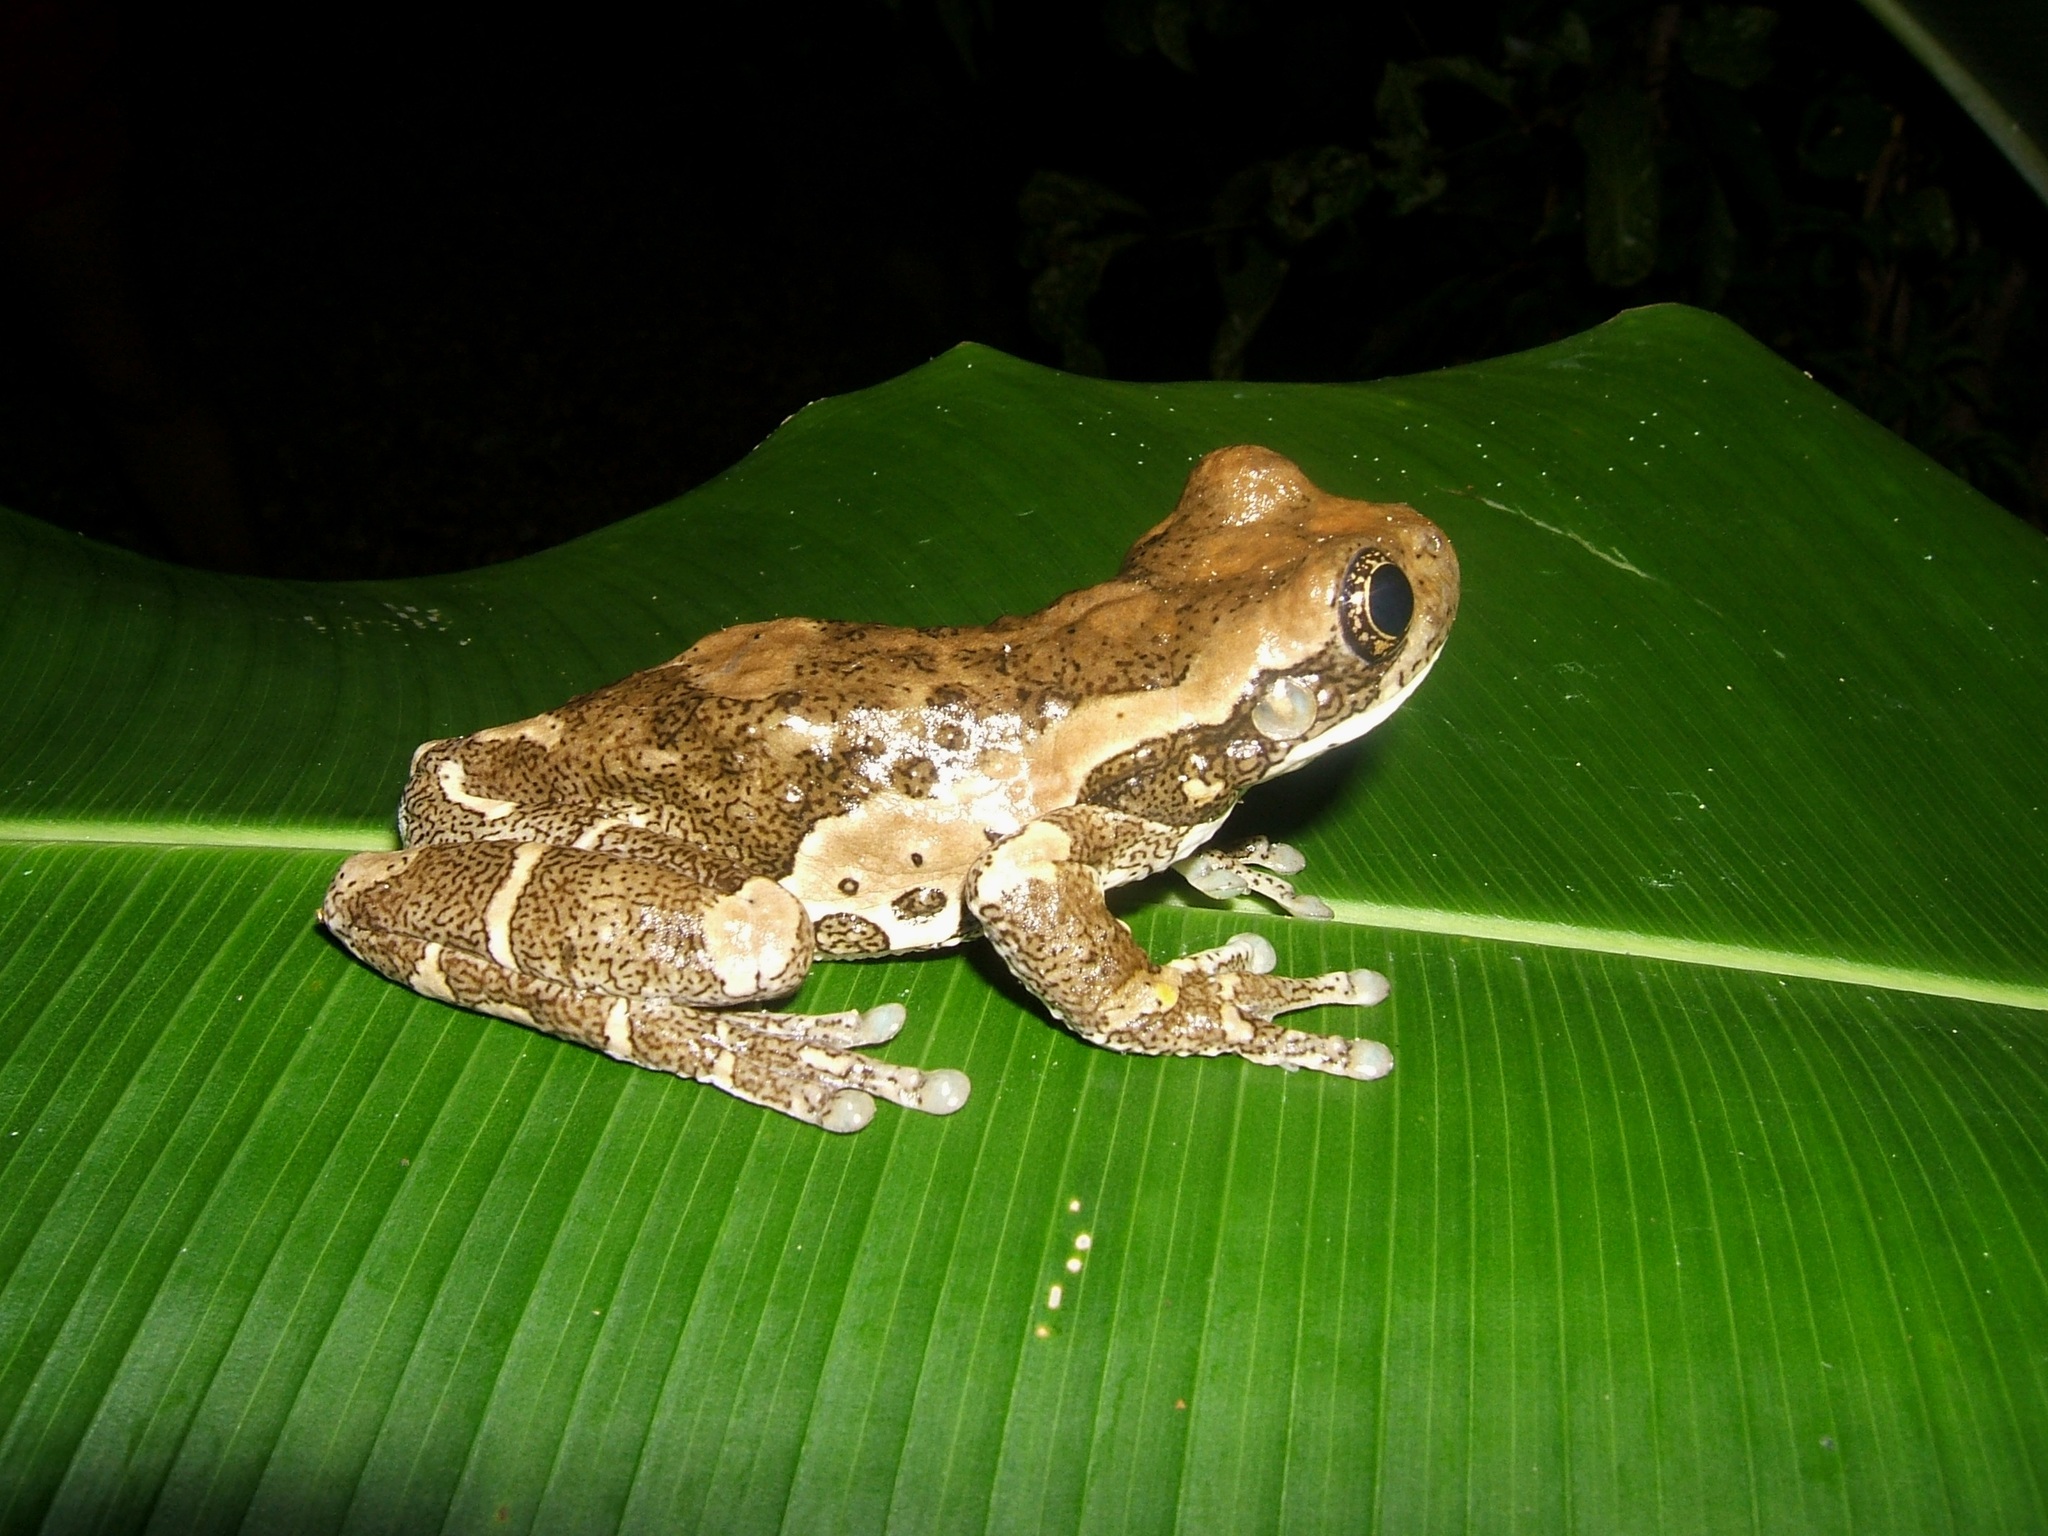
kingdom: Animalia
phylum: Chordata
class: Amphibia
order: Anura
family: Hylidae
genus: Trachycephalus
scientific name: Trachycephalus vermiculatus
